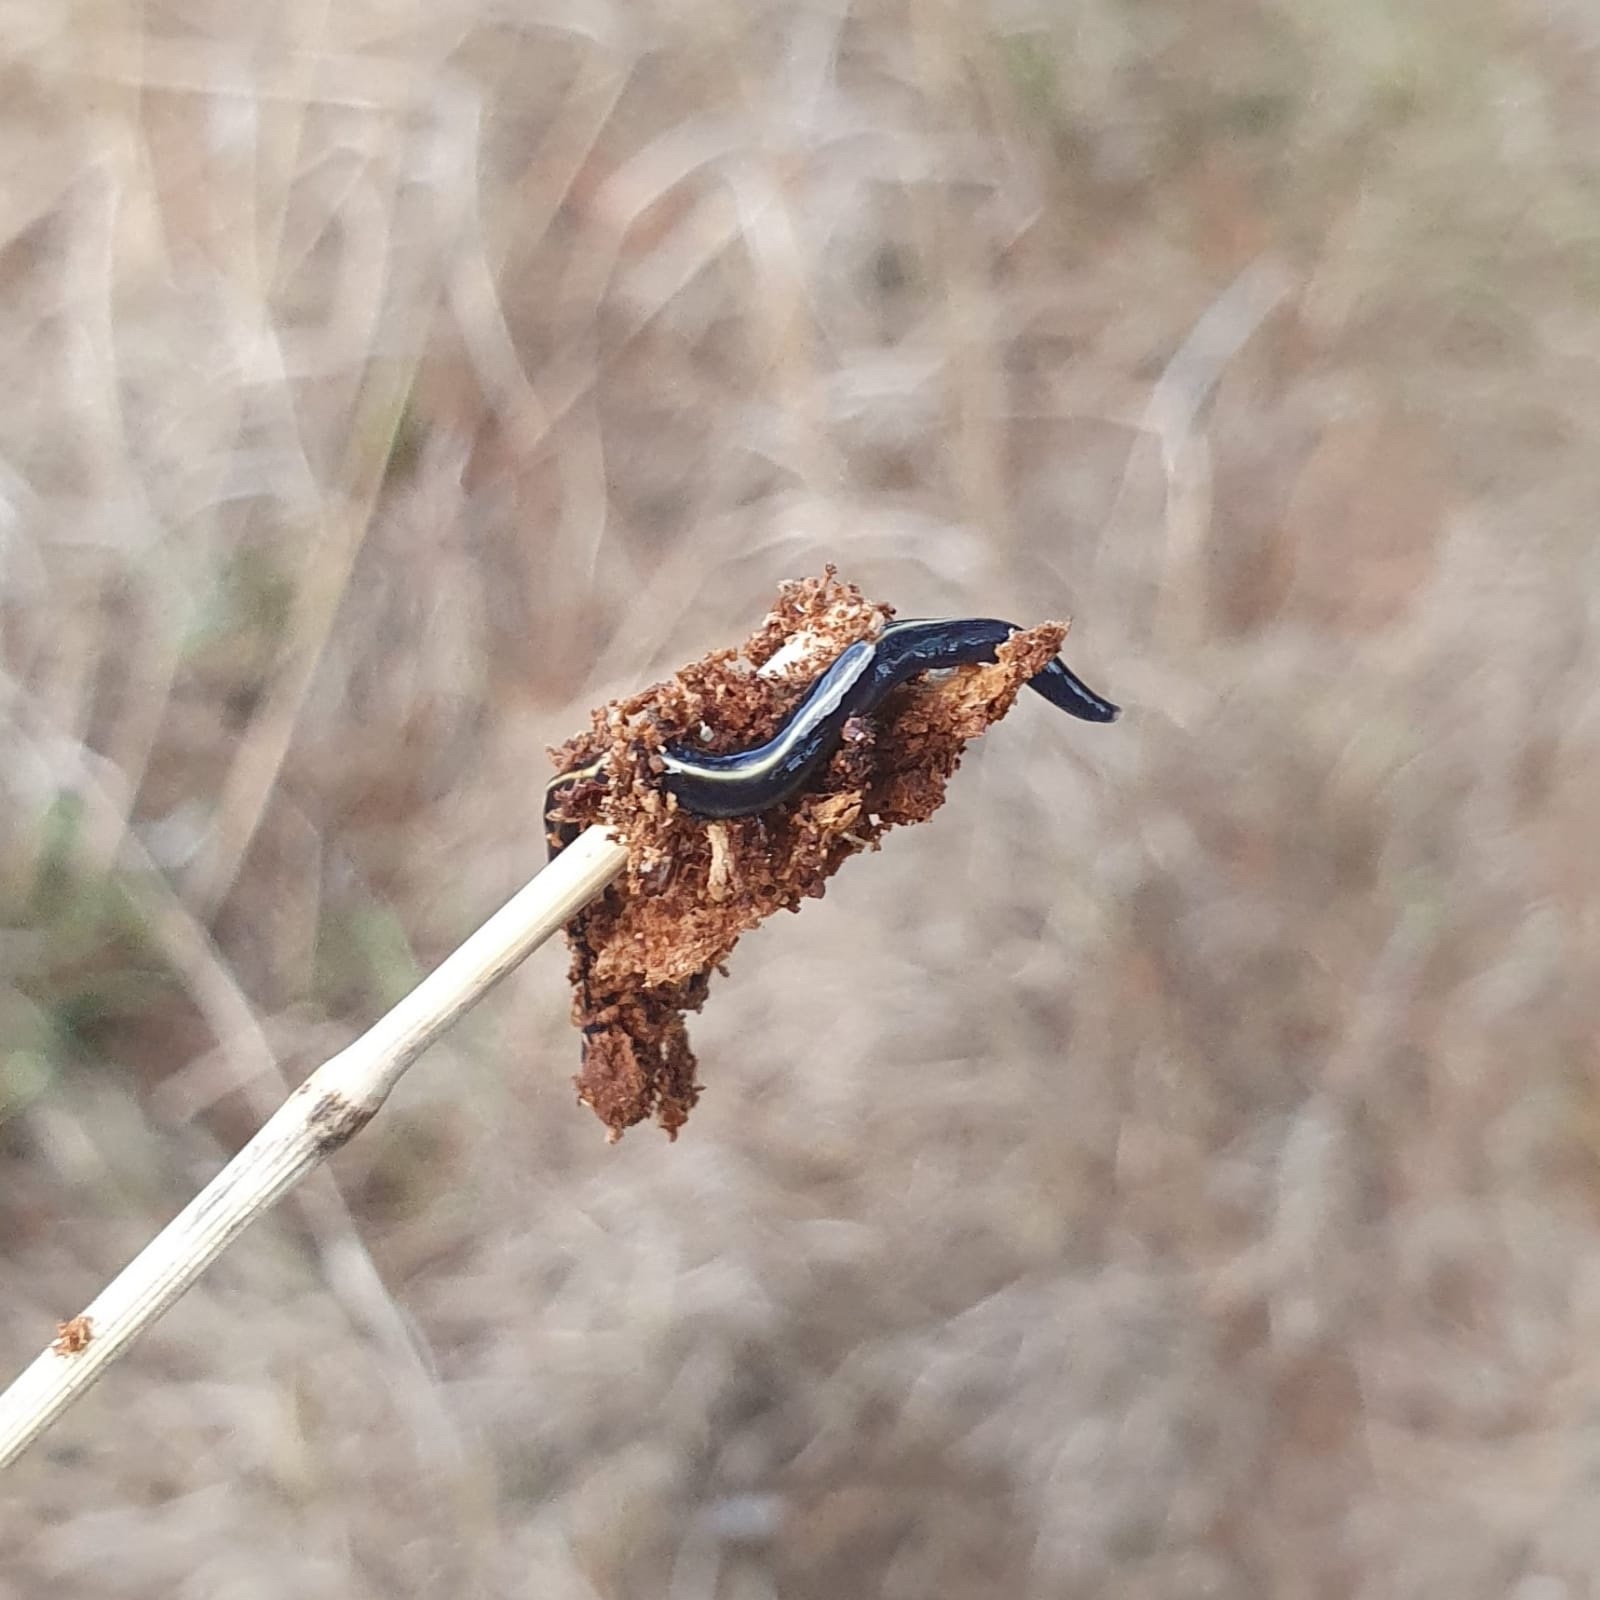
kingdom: Animalia
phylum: Platyhelminthes
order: Tricladida
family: Geoplanidae
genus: Caenoplana
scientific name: Caenoplana coerulea
